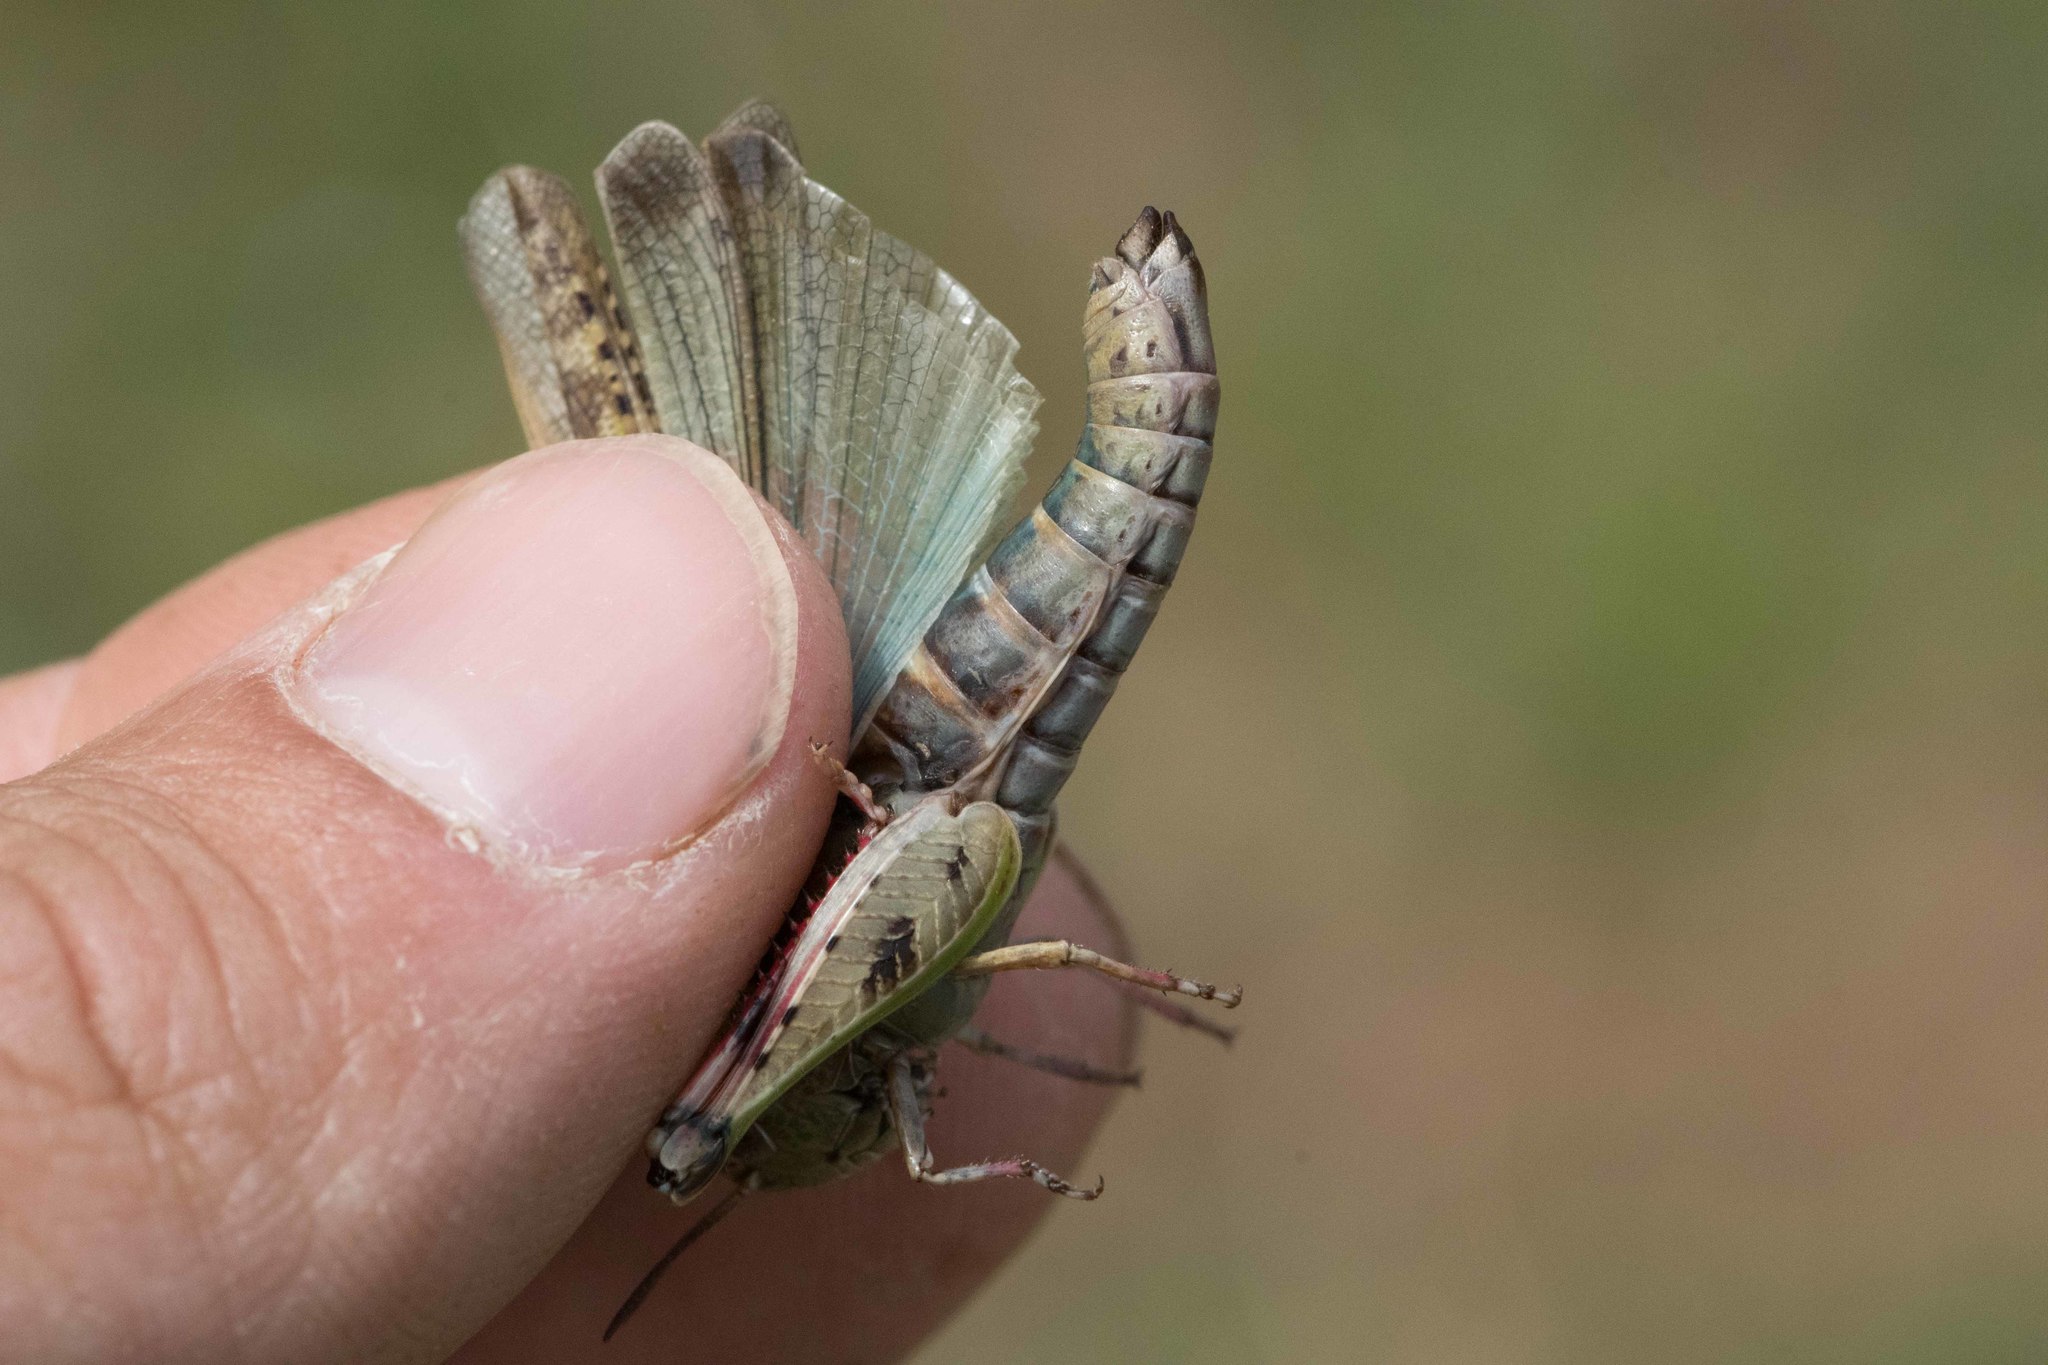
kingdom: Animalia
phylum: Arthropoda
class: Insecta
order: Orthoptera
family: Acrididae
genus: Aiolopus
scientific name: Aiolopus strepens
